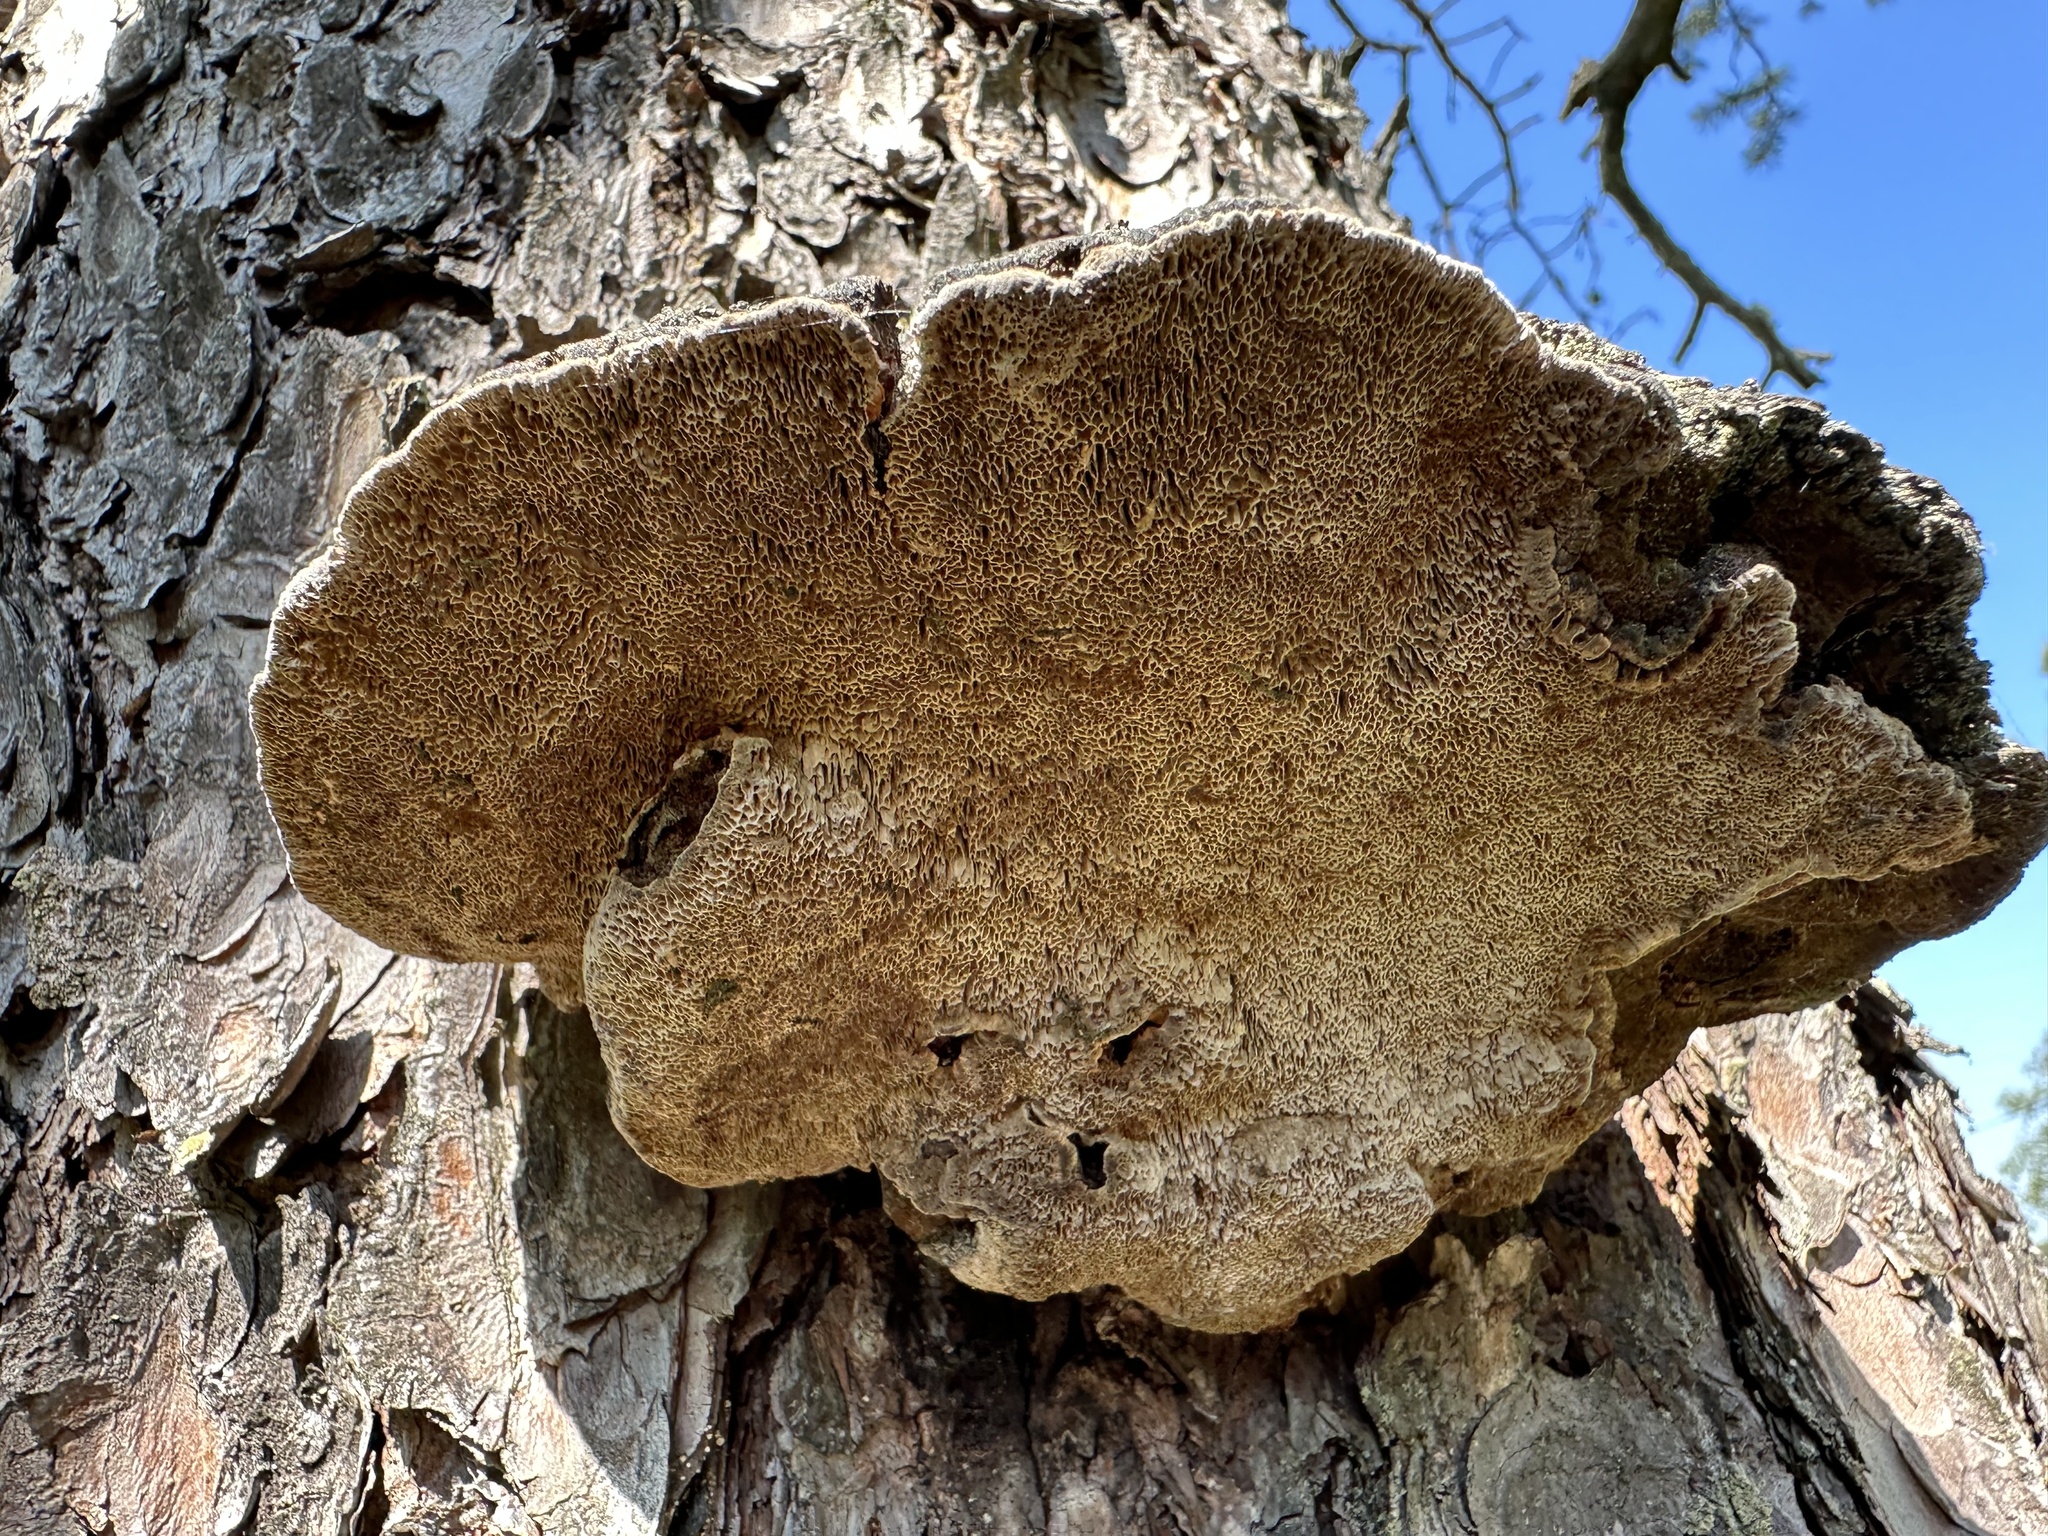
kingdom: Fungi
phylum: Basidiomycota
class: Agaricomycetes
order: Hymenochaetales
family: Hymenochaetaceae
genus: Porodaedalea
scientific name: Porodaedalea pini
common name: Pine bracket
